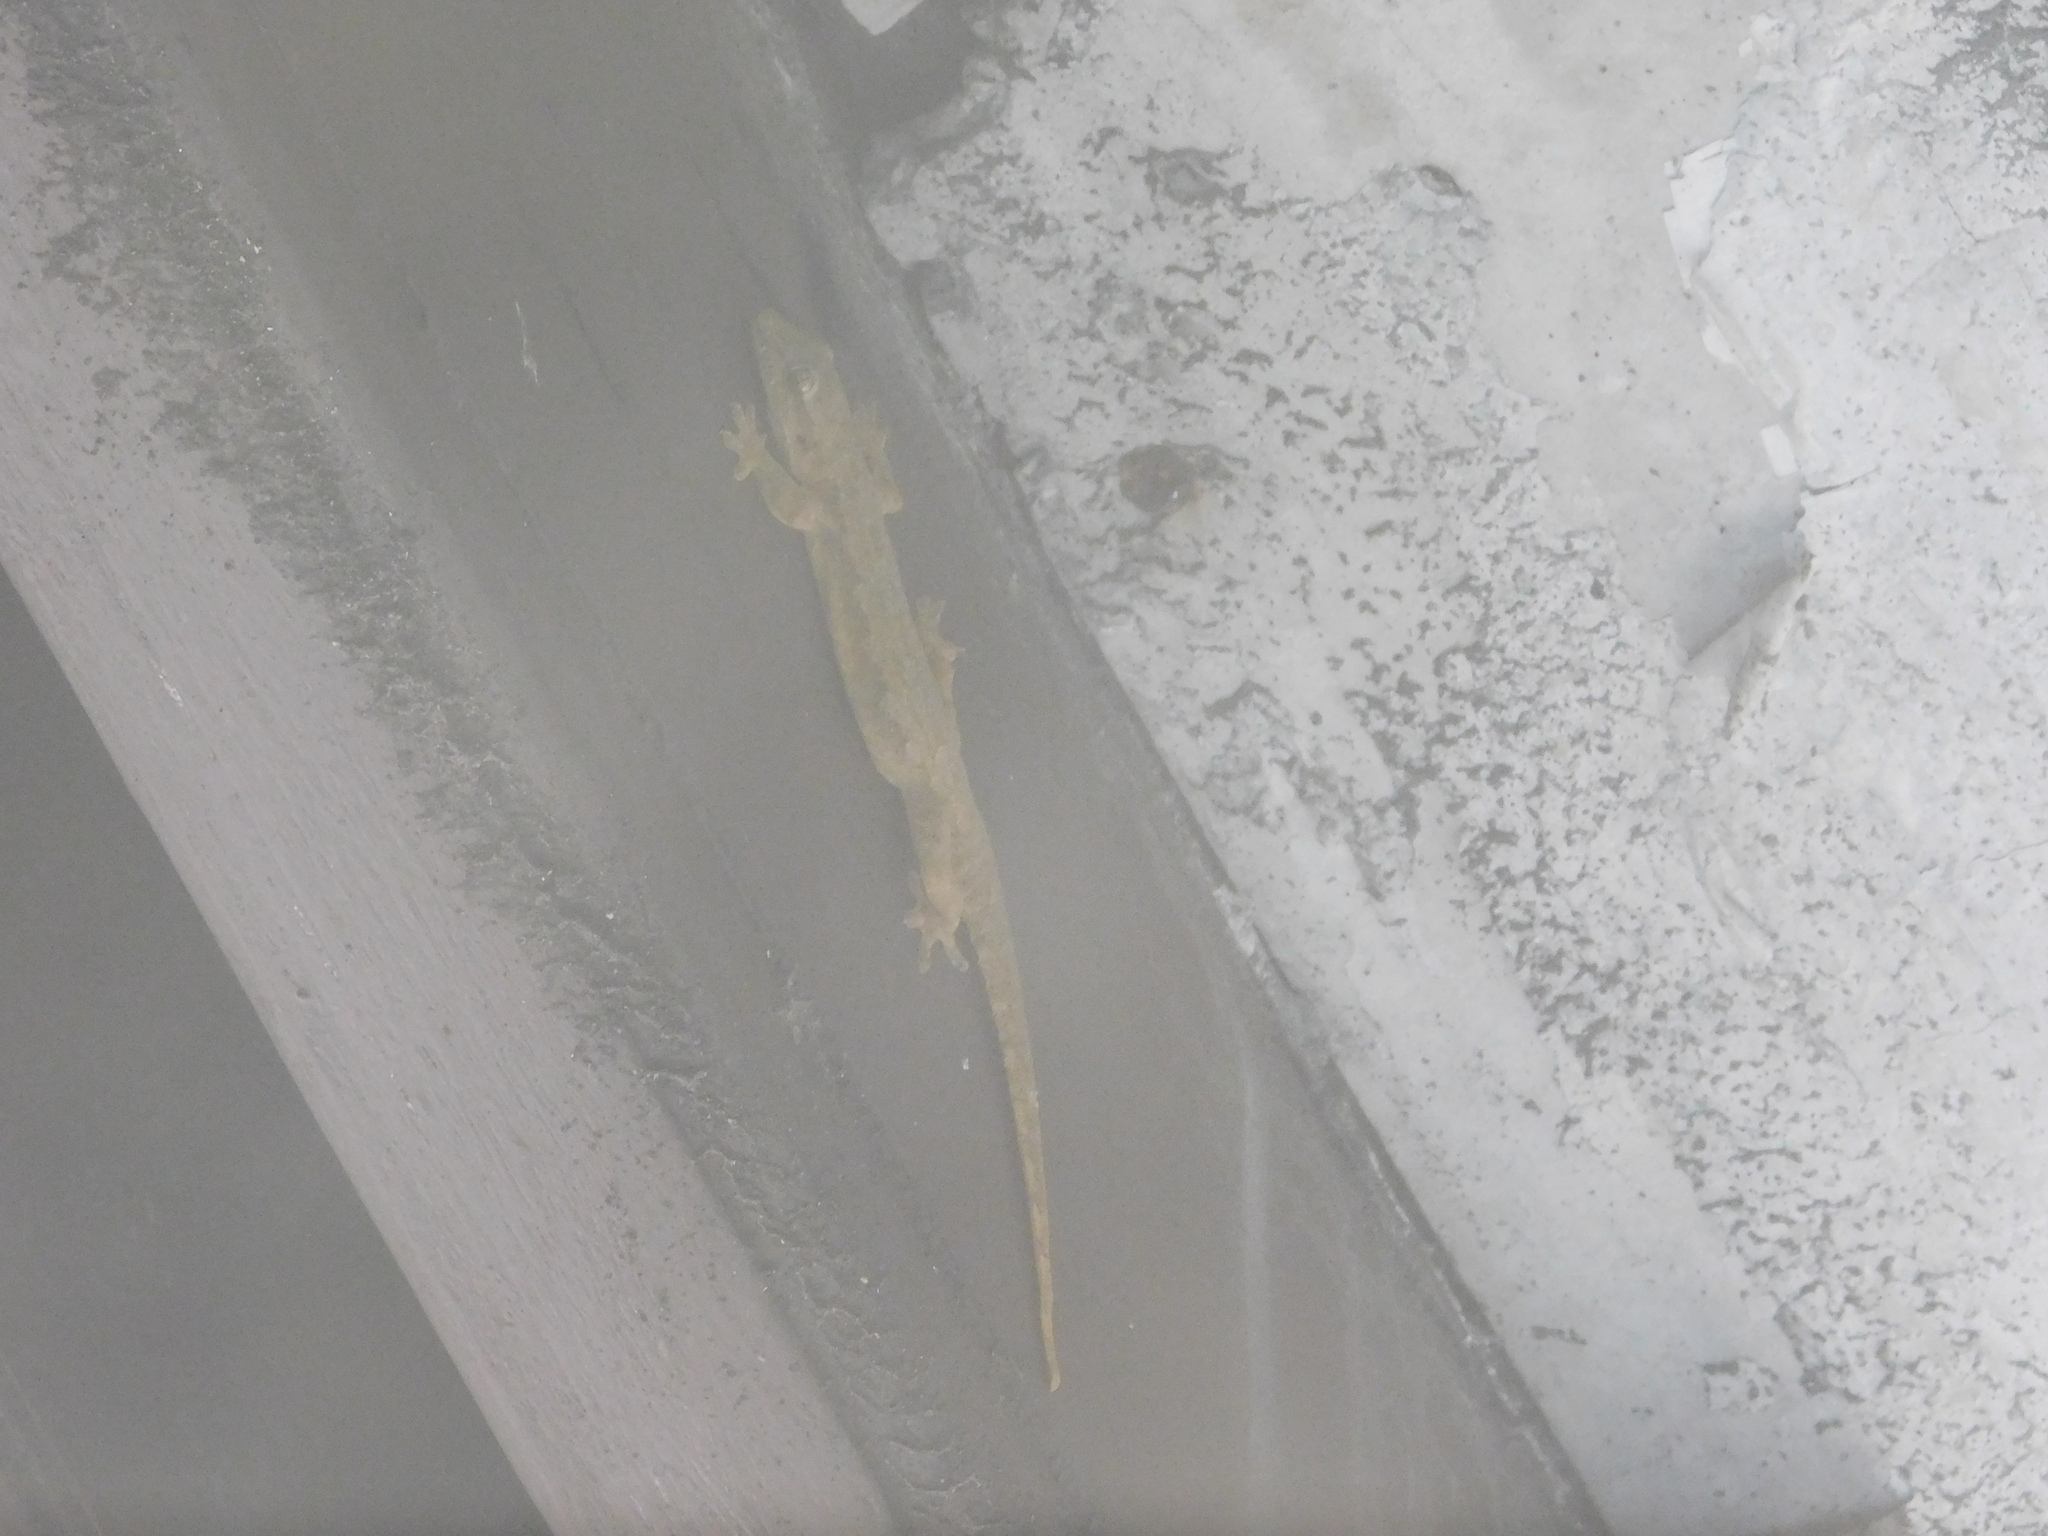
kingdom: Animalia
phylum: Chordata
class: Squamata
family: Gekkonidae
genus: Hemidactylus
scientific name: Hemidactylus platyurus
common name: Flat-tailed house gecko
